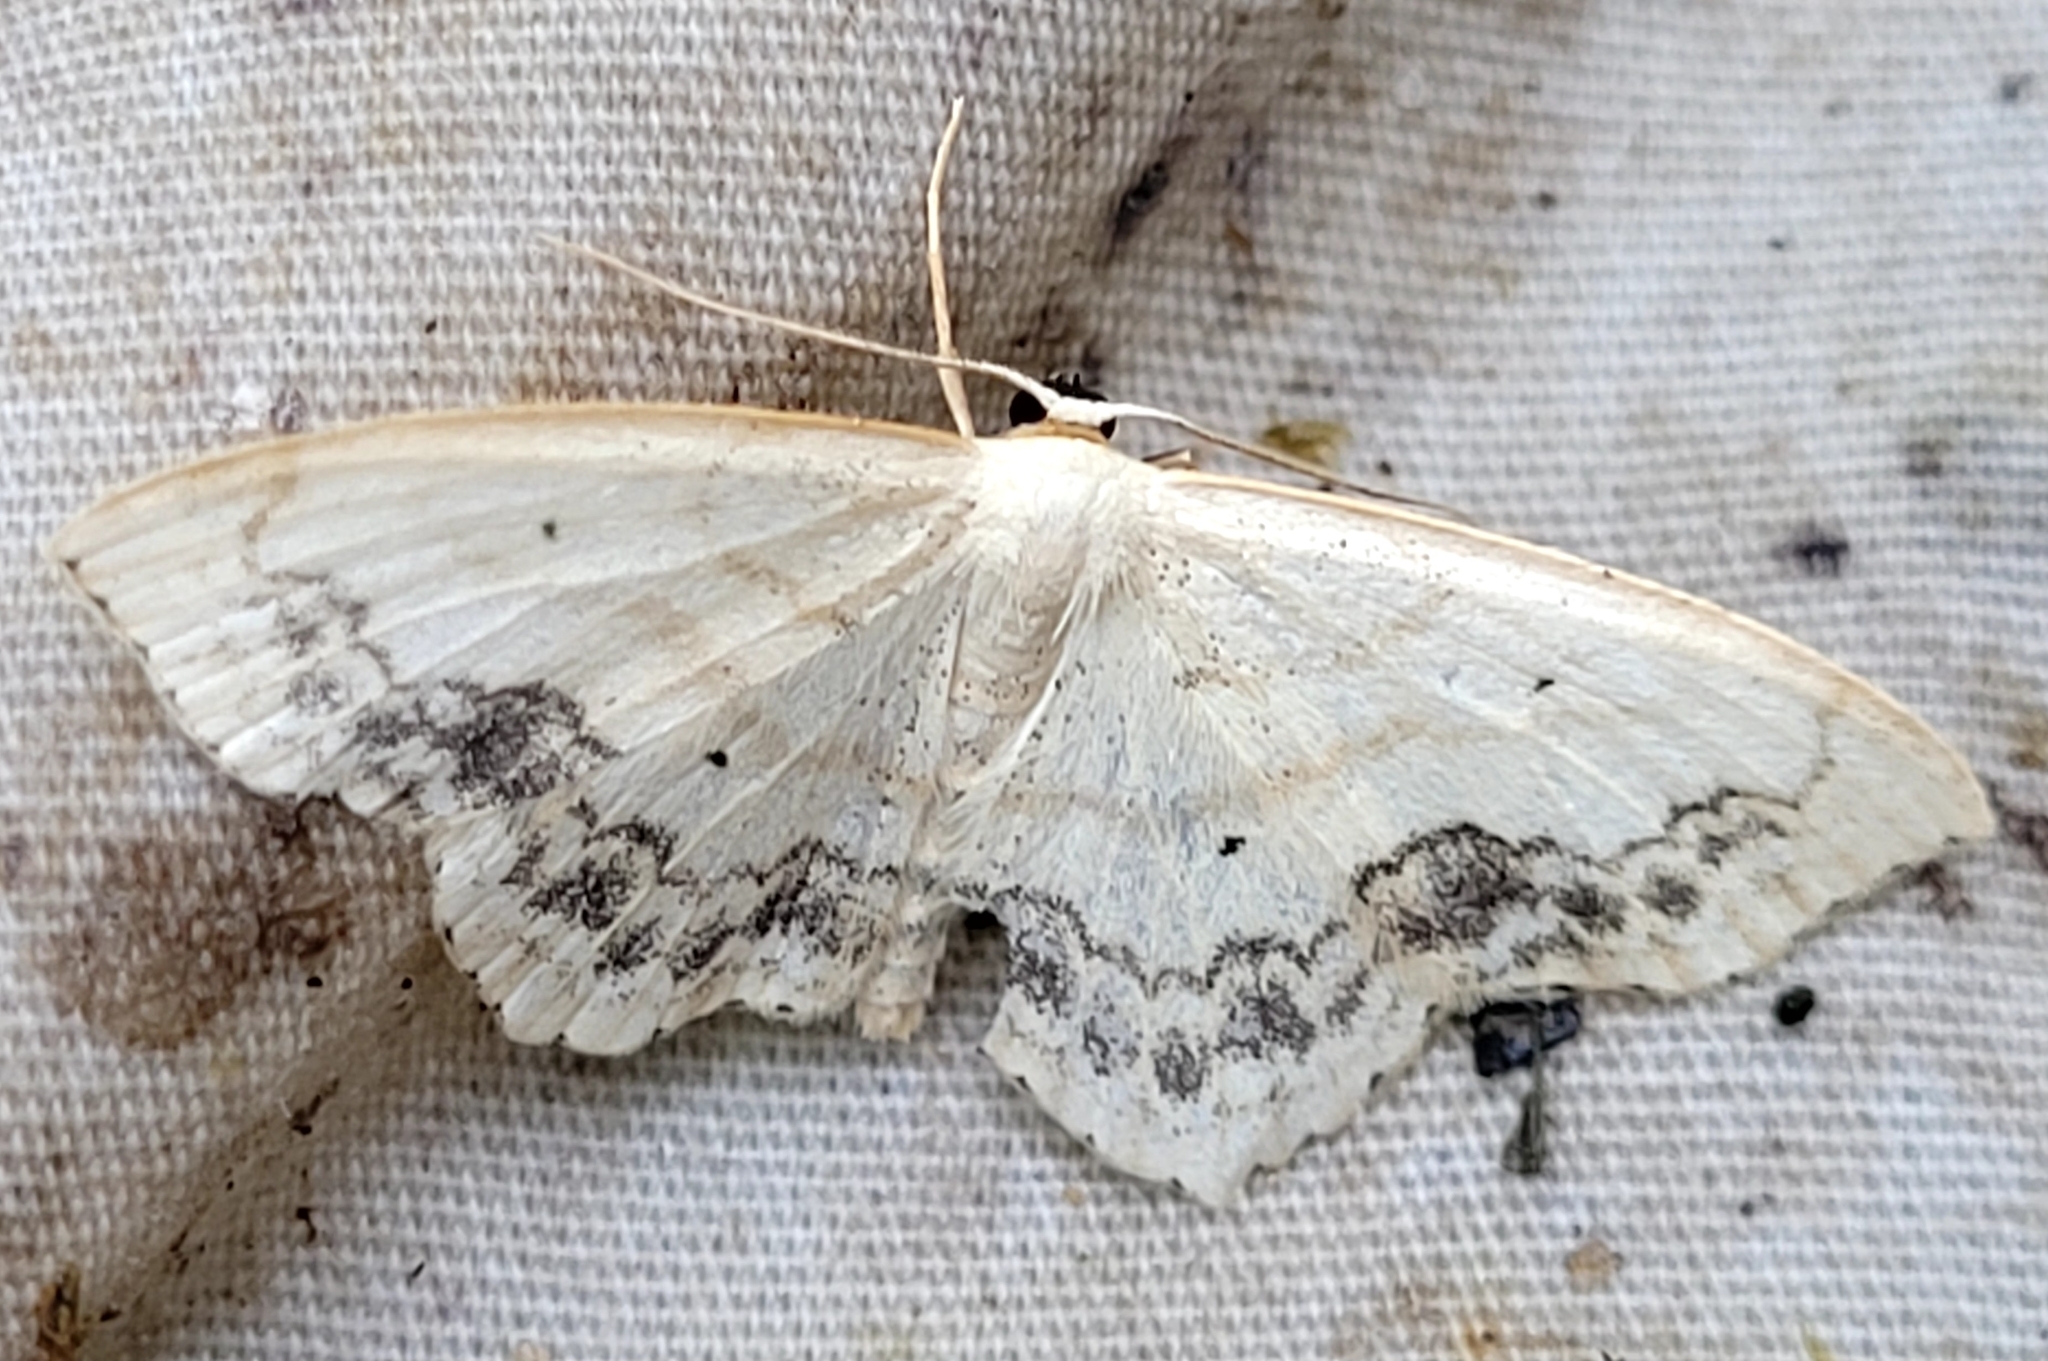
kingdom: Animalia
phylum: Arthropoda
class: Insecta
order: Lepidoptera
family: Geometridae
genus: Scopula
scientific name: Scopula limboundata
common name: Large lace border
